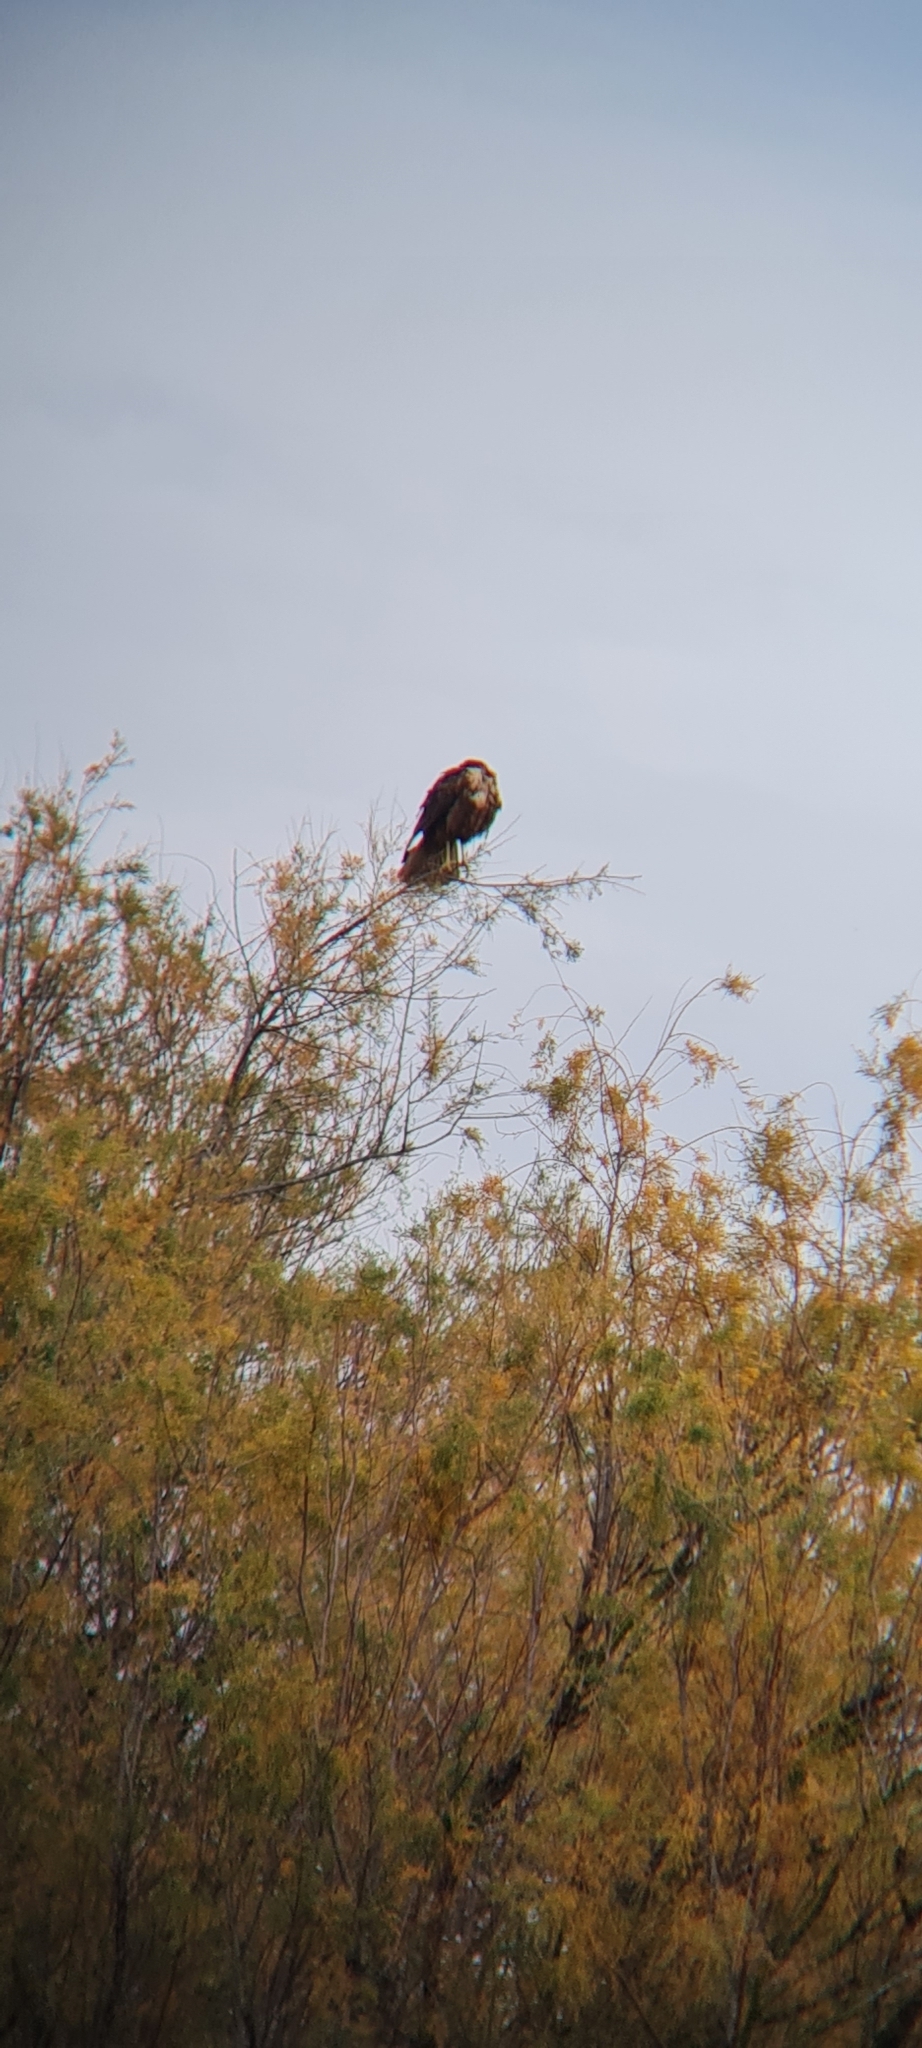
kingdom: Animalia
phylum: Chordata
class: Aves
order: Accipitriformes
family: Accipitridae
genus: Circus
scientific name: Circus aeruginosus
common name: Western marsh harrier
